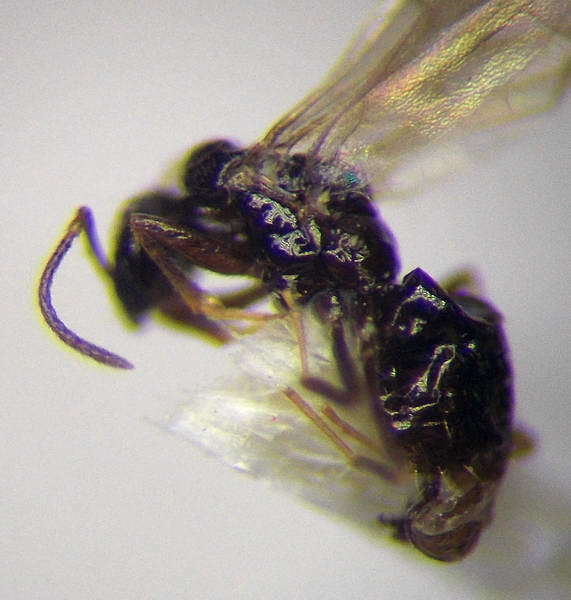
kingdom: Animalia
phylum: Arthropoda
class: Insecta
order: Hymenoptera
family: Formicidae
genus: Plagiolepis
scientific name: Plagiolepis pallescens
